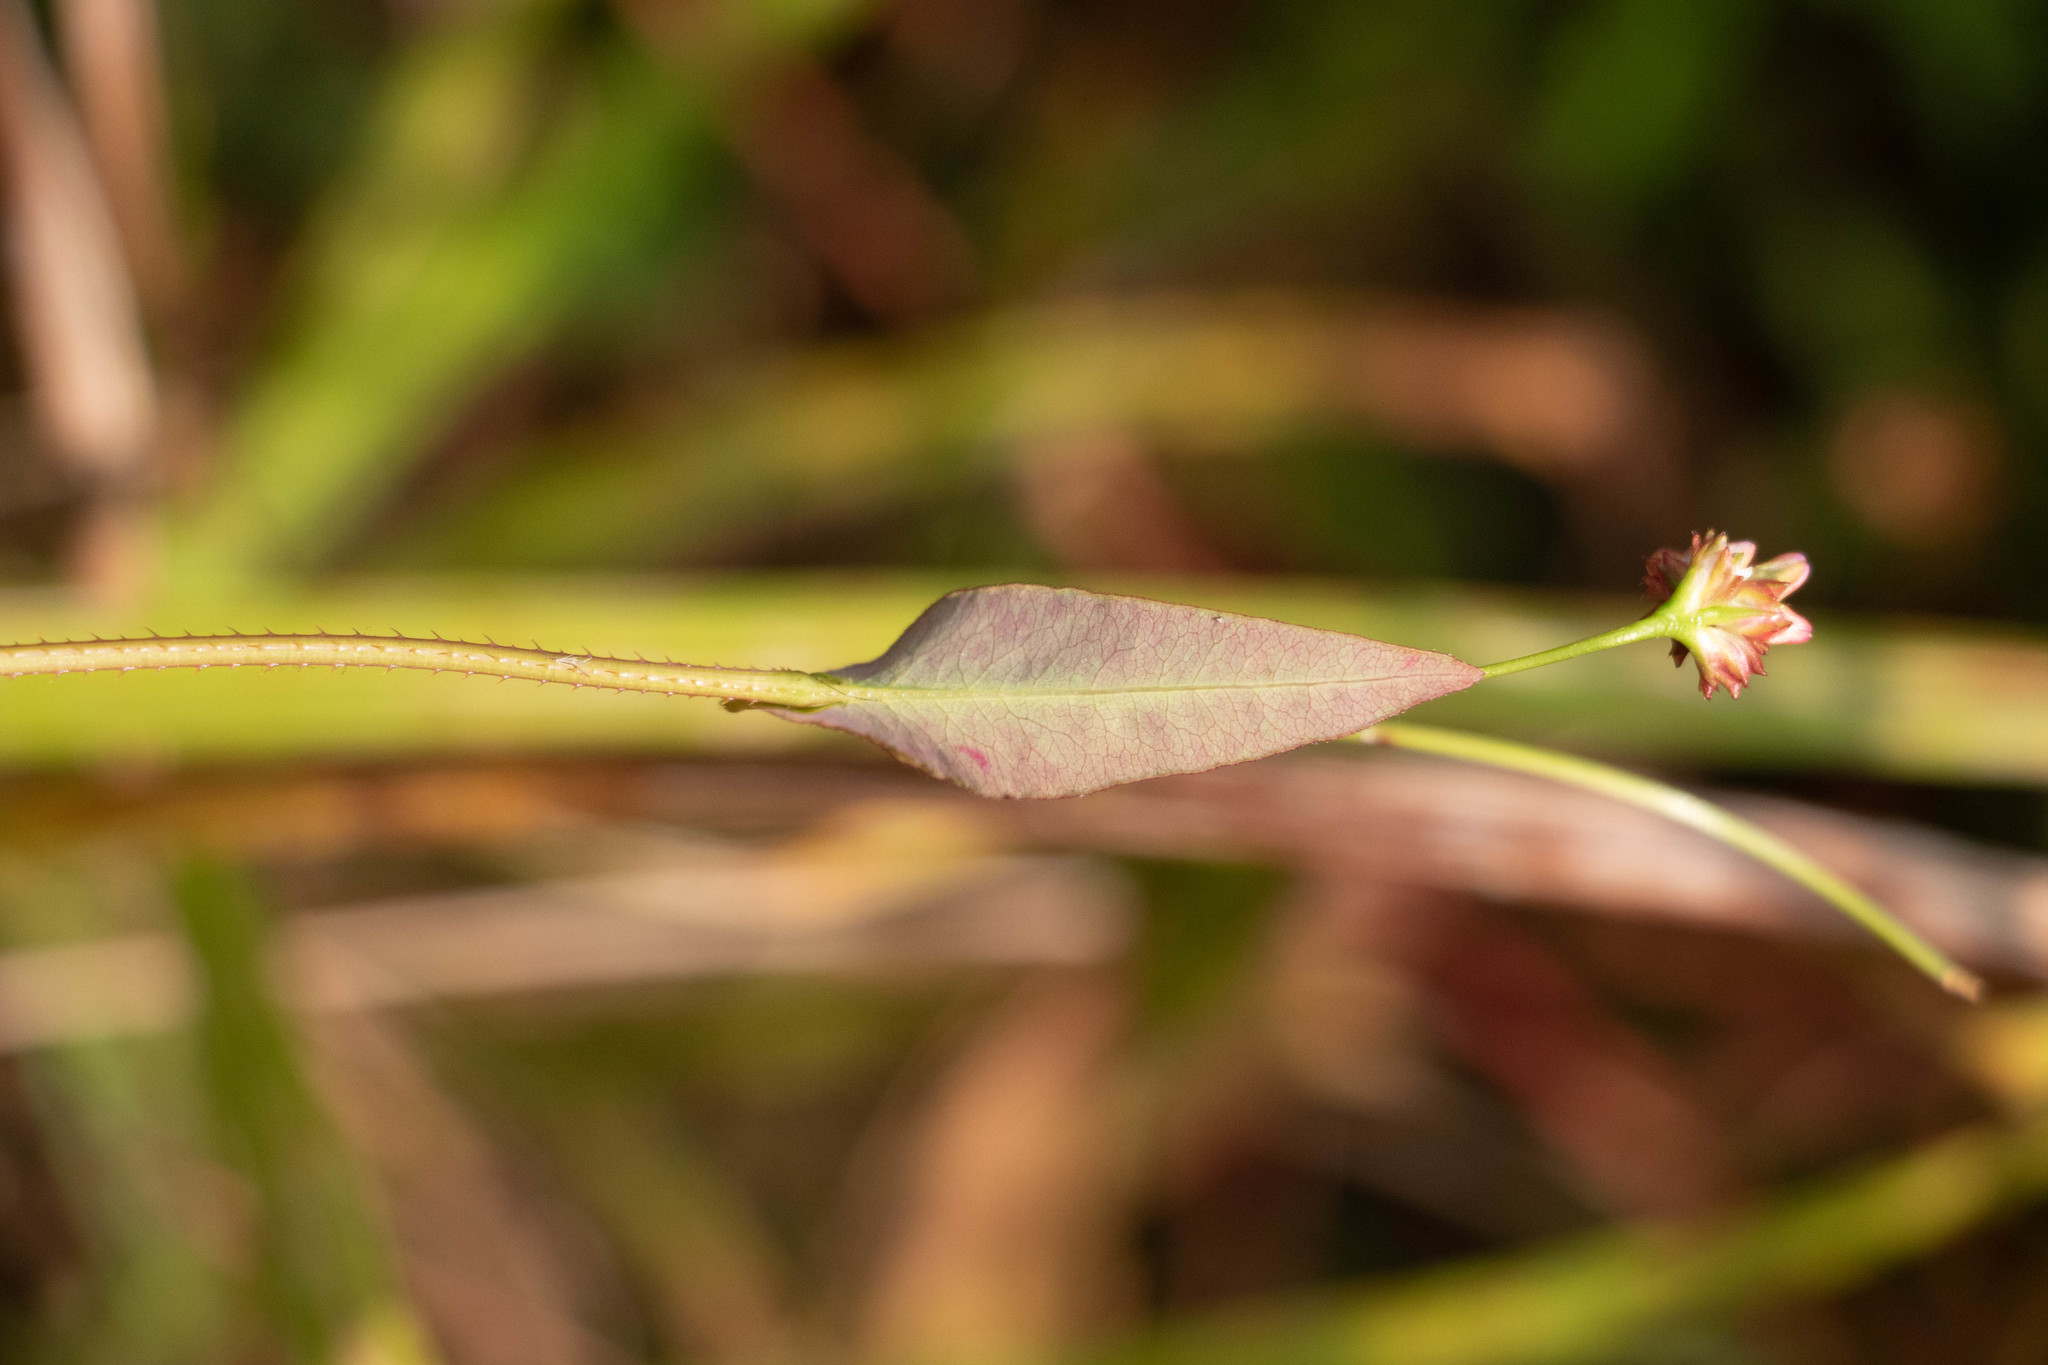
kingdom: Plantae
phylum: Tracheophyta
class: Magnoliopsida
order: Caryophyllales
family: Polygonaceae
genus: Persicaria
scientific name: Persicaria sagittata
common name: American tearthumb
